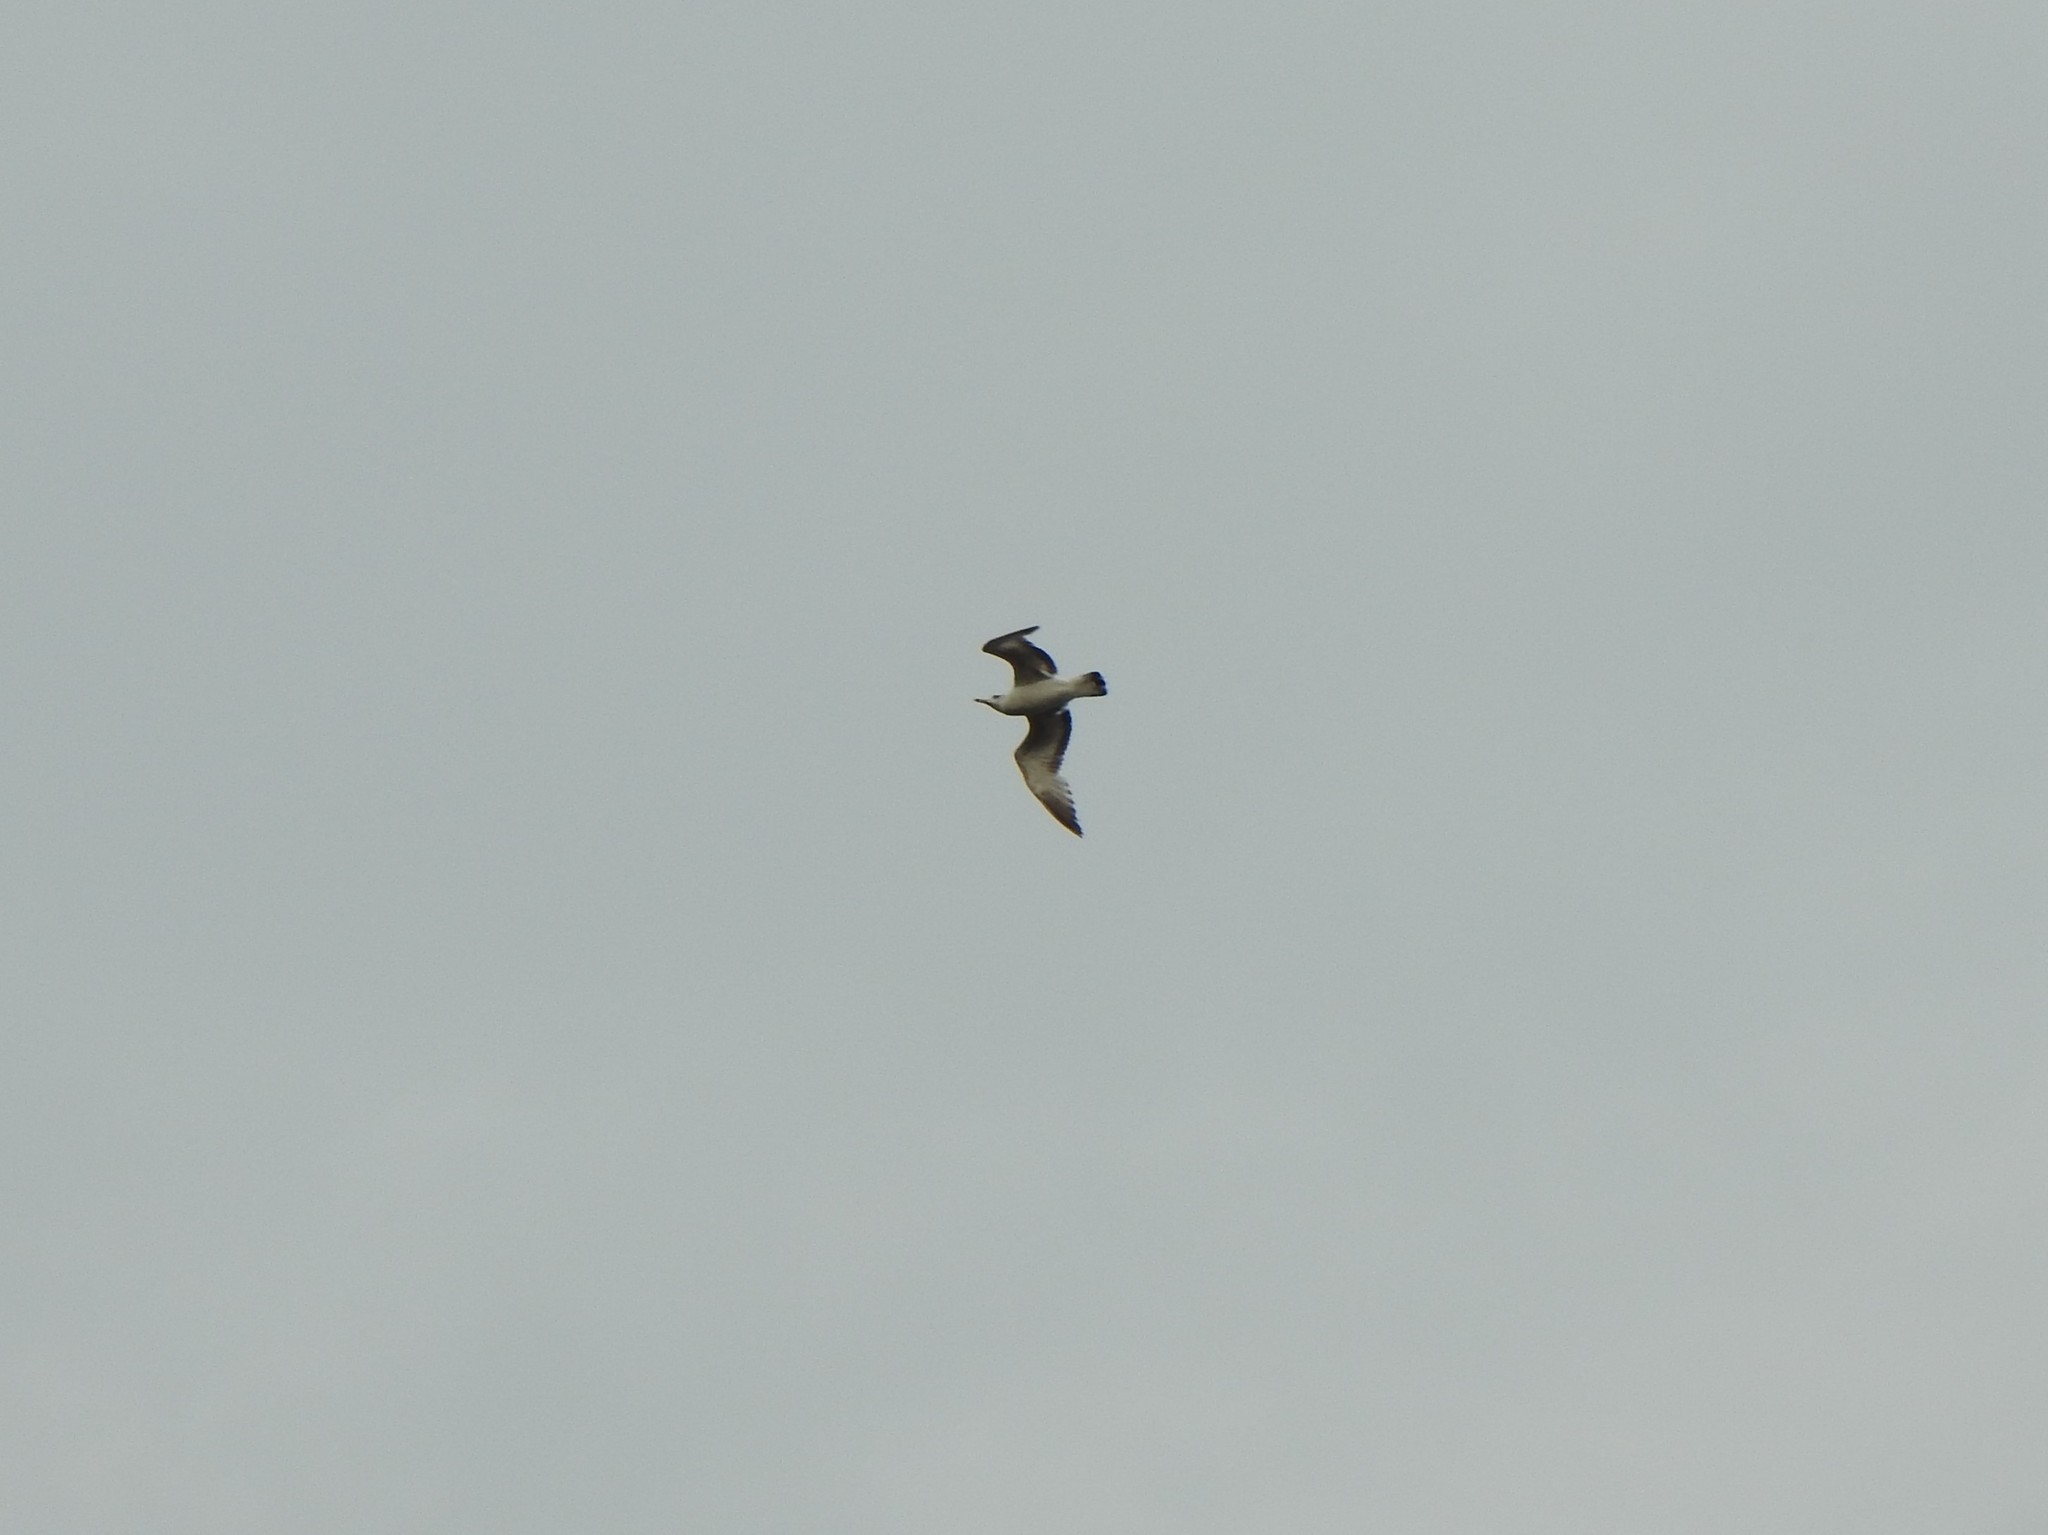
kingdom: Animalia
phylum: Chordata
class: Aves
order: Charadriiformes
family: Laridae
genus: Larus
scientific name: Larus delawarensis
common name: Ring-billed gull
